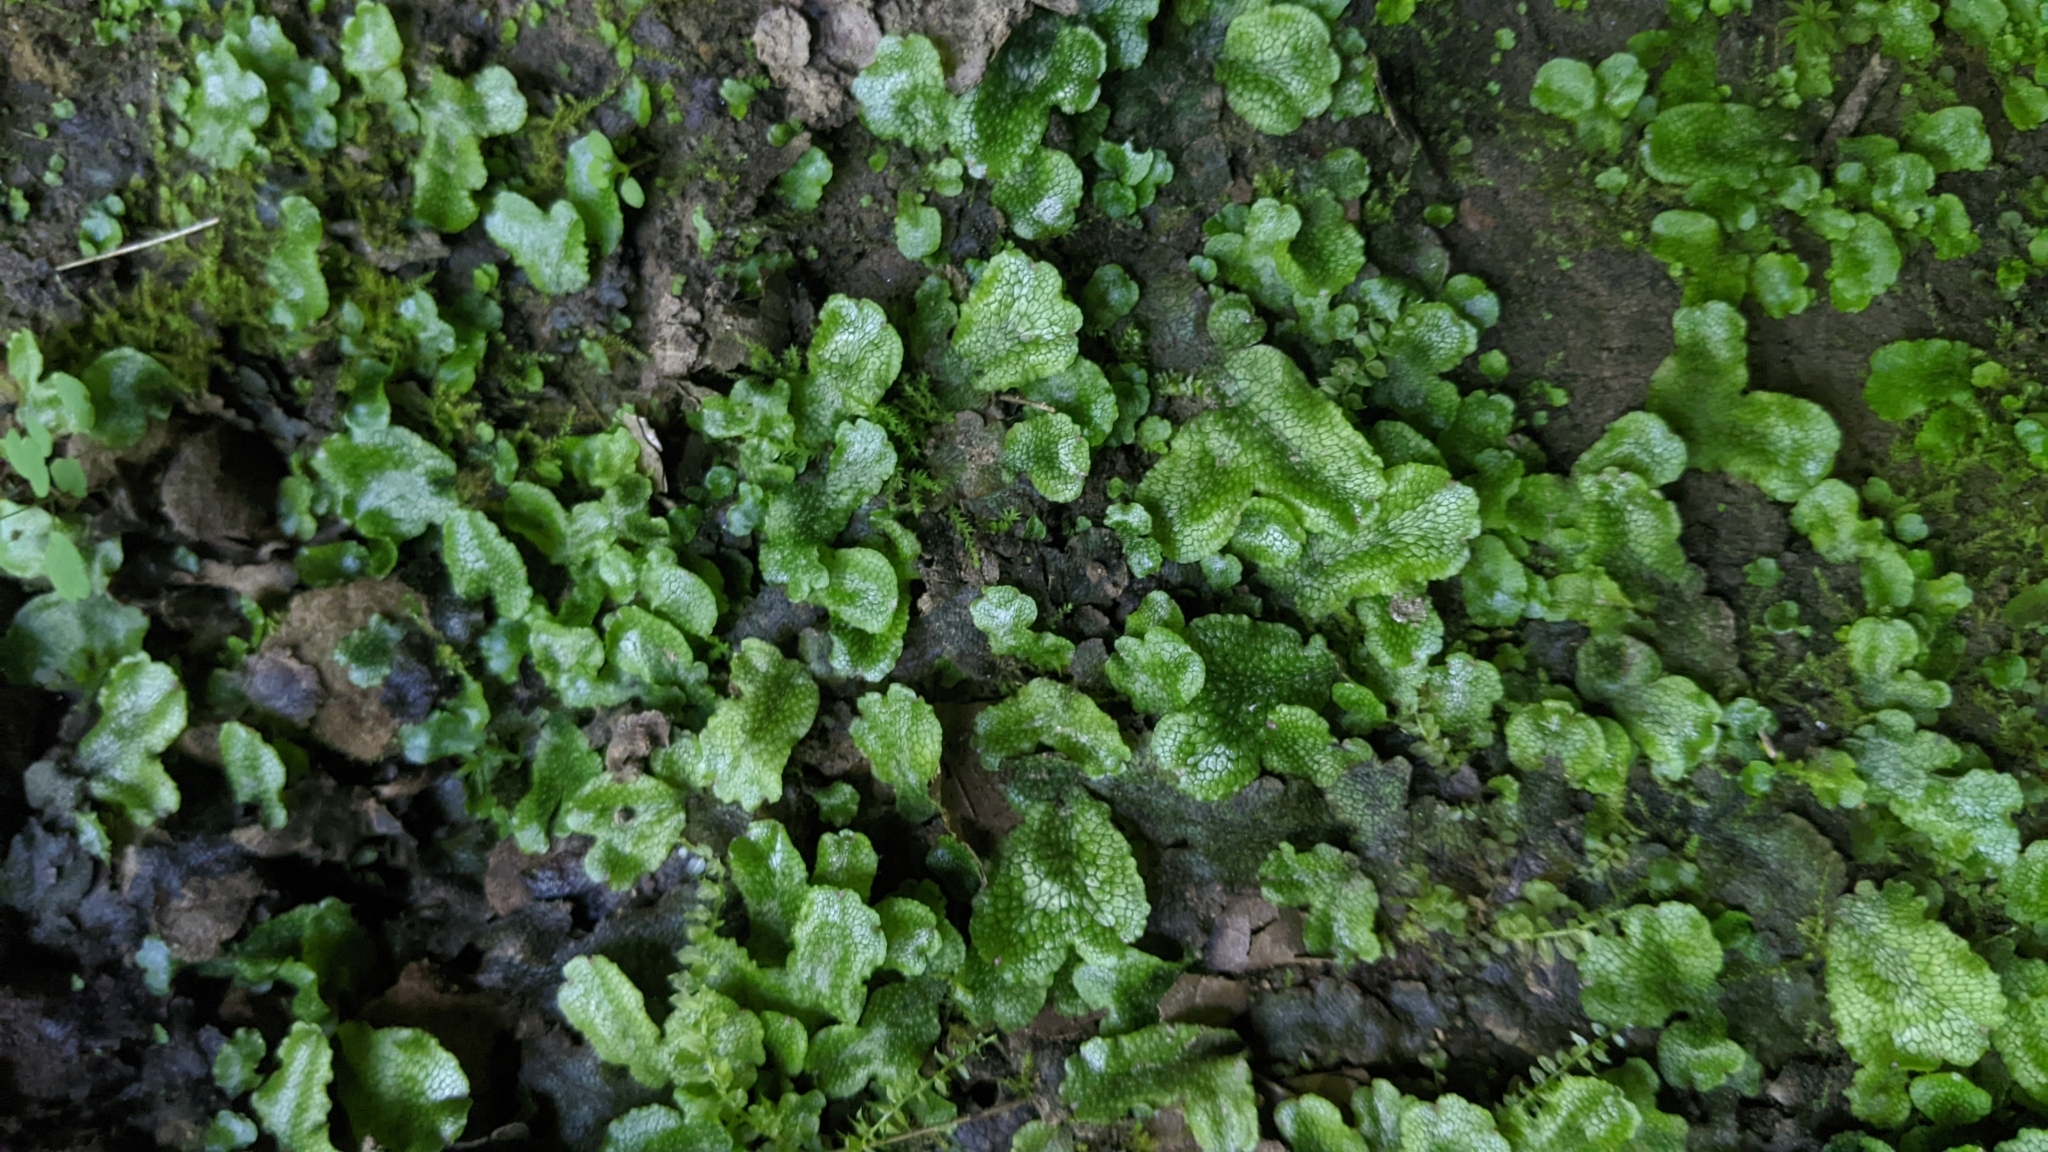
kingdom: Plantae
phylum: Marchantiophyta
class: Marchantiopsida
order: Marchantiales
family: Conocephalaceae
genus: Conocephalum
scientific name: Conocephalum salebrosum
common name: Cat-tongue liverwort
